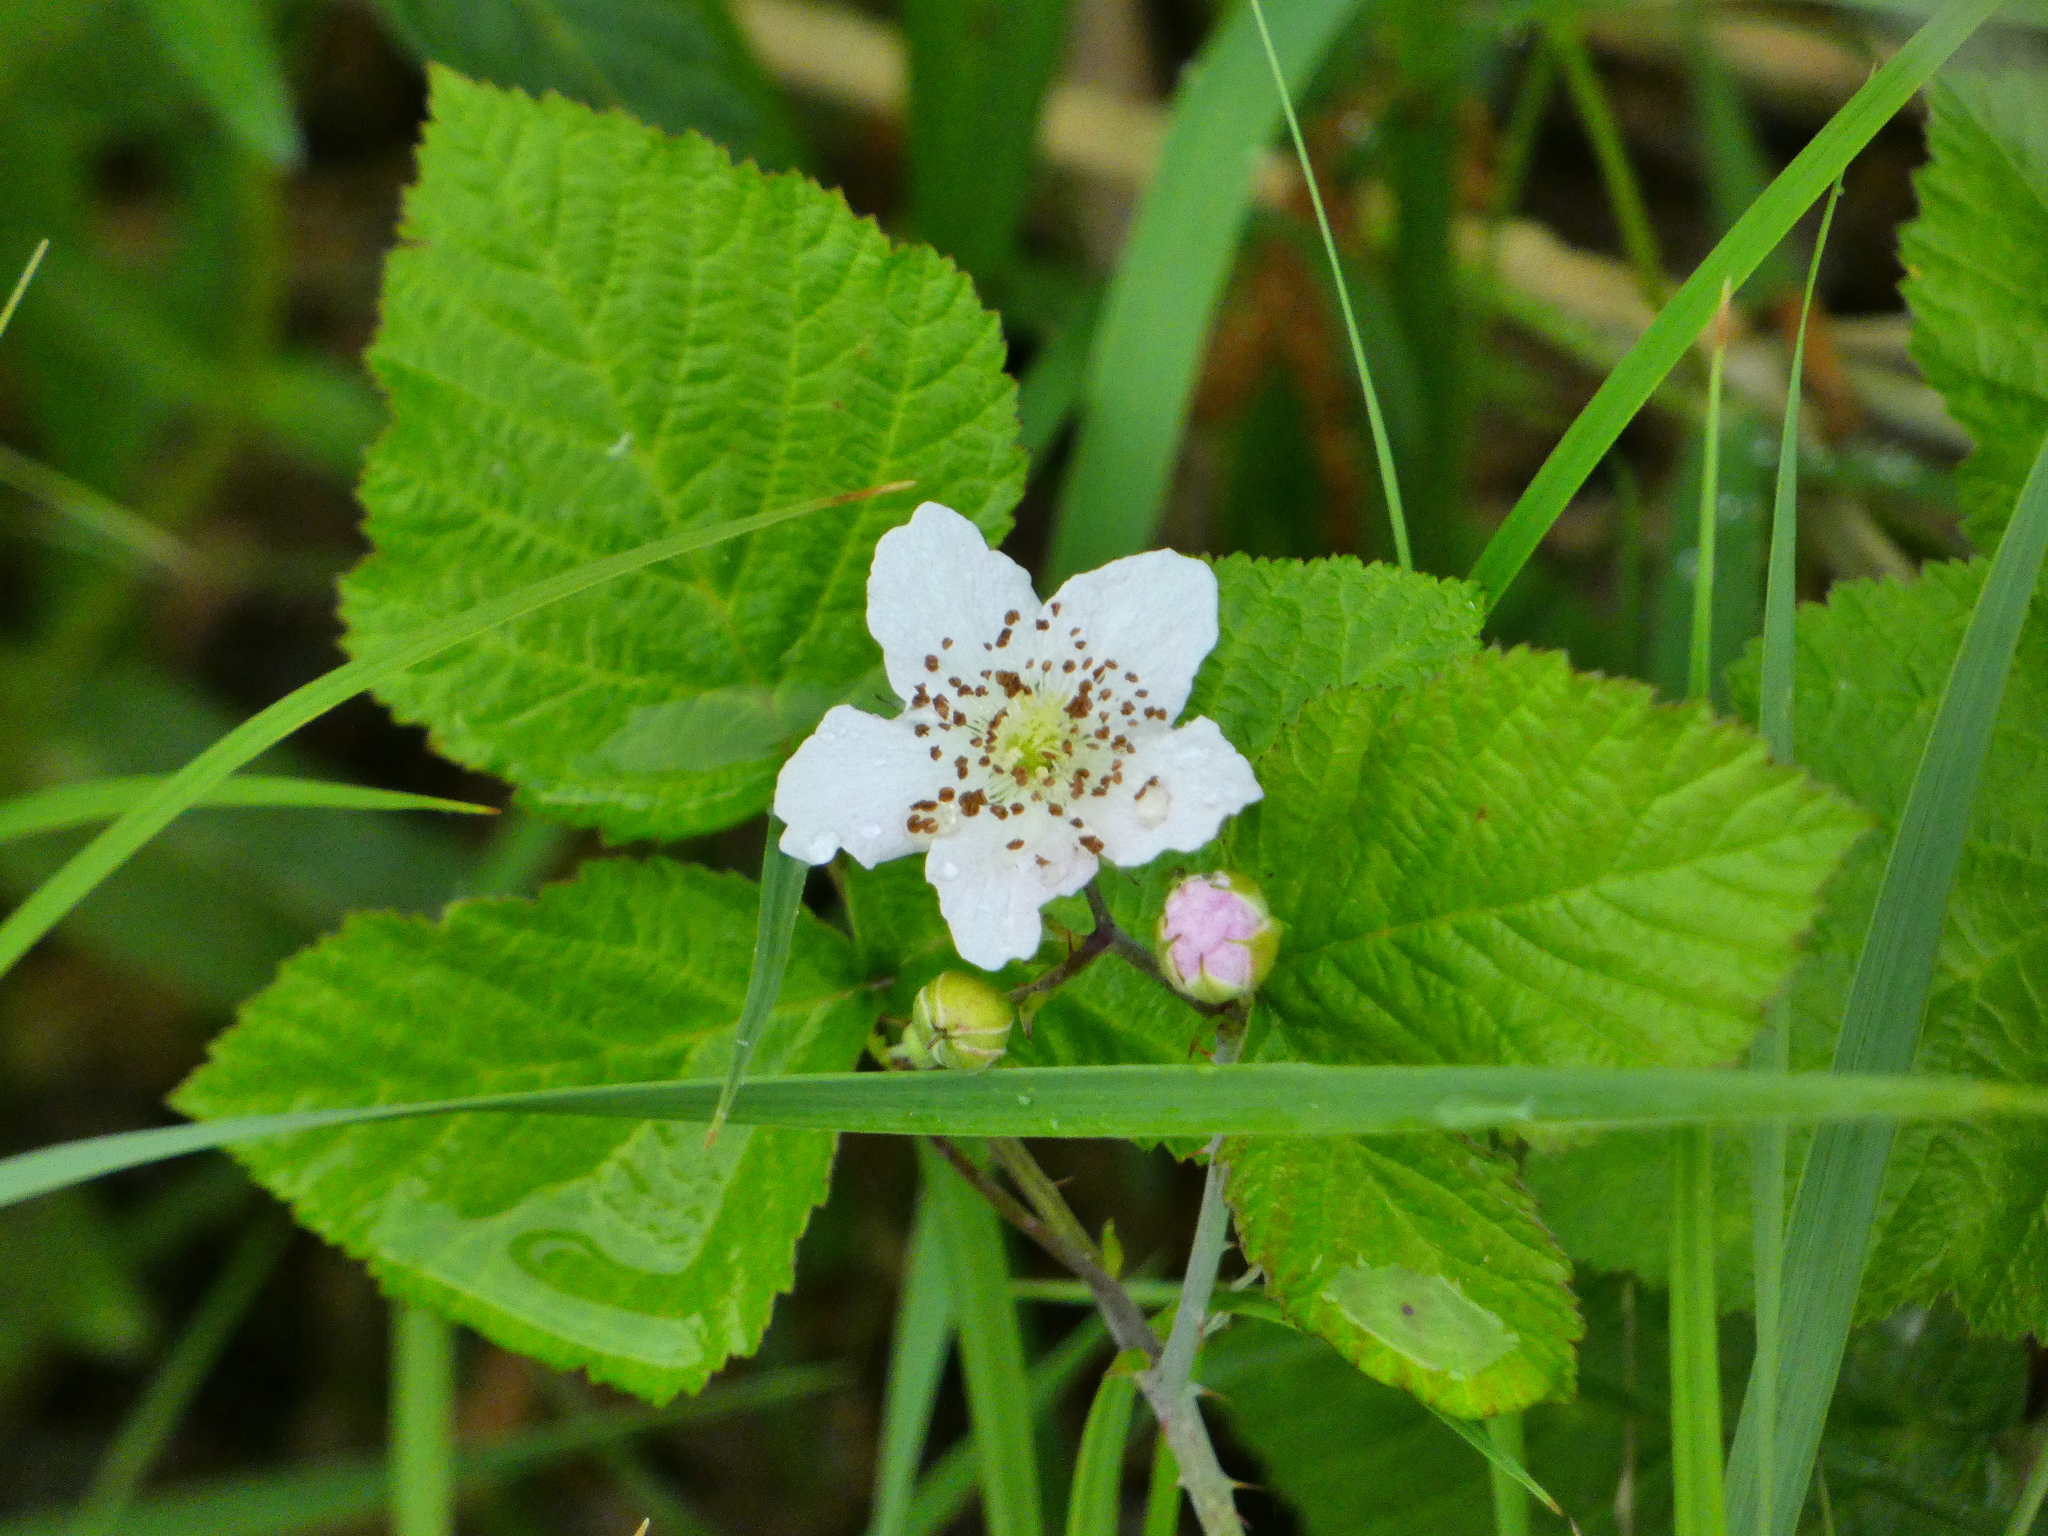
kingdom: Plantae
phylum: Tracheophyta
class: Magnoliopsida
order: Rosales
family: Rosaceae
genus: Rubus
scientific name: Rubus caesius
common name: Dewberry
